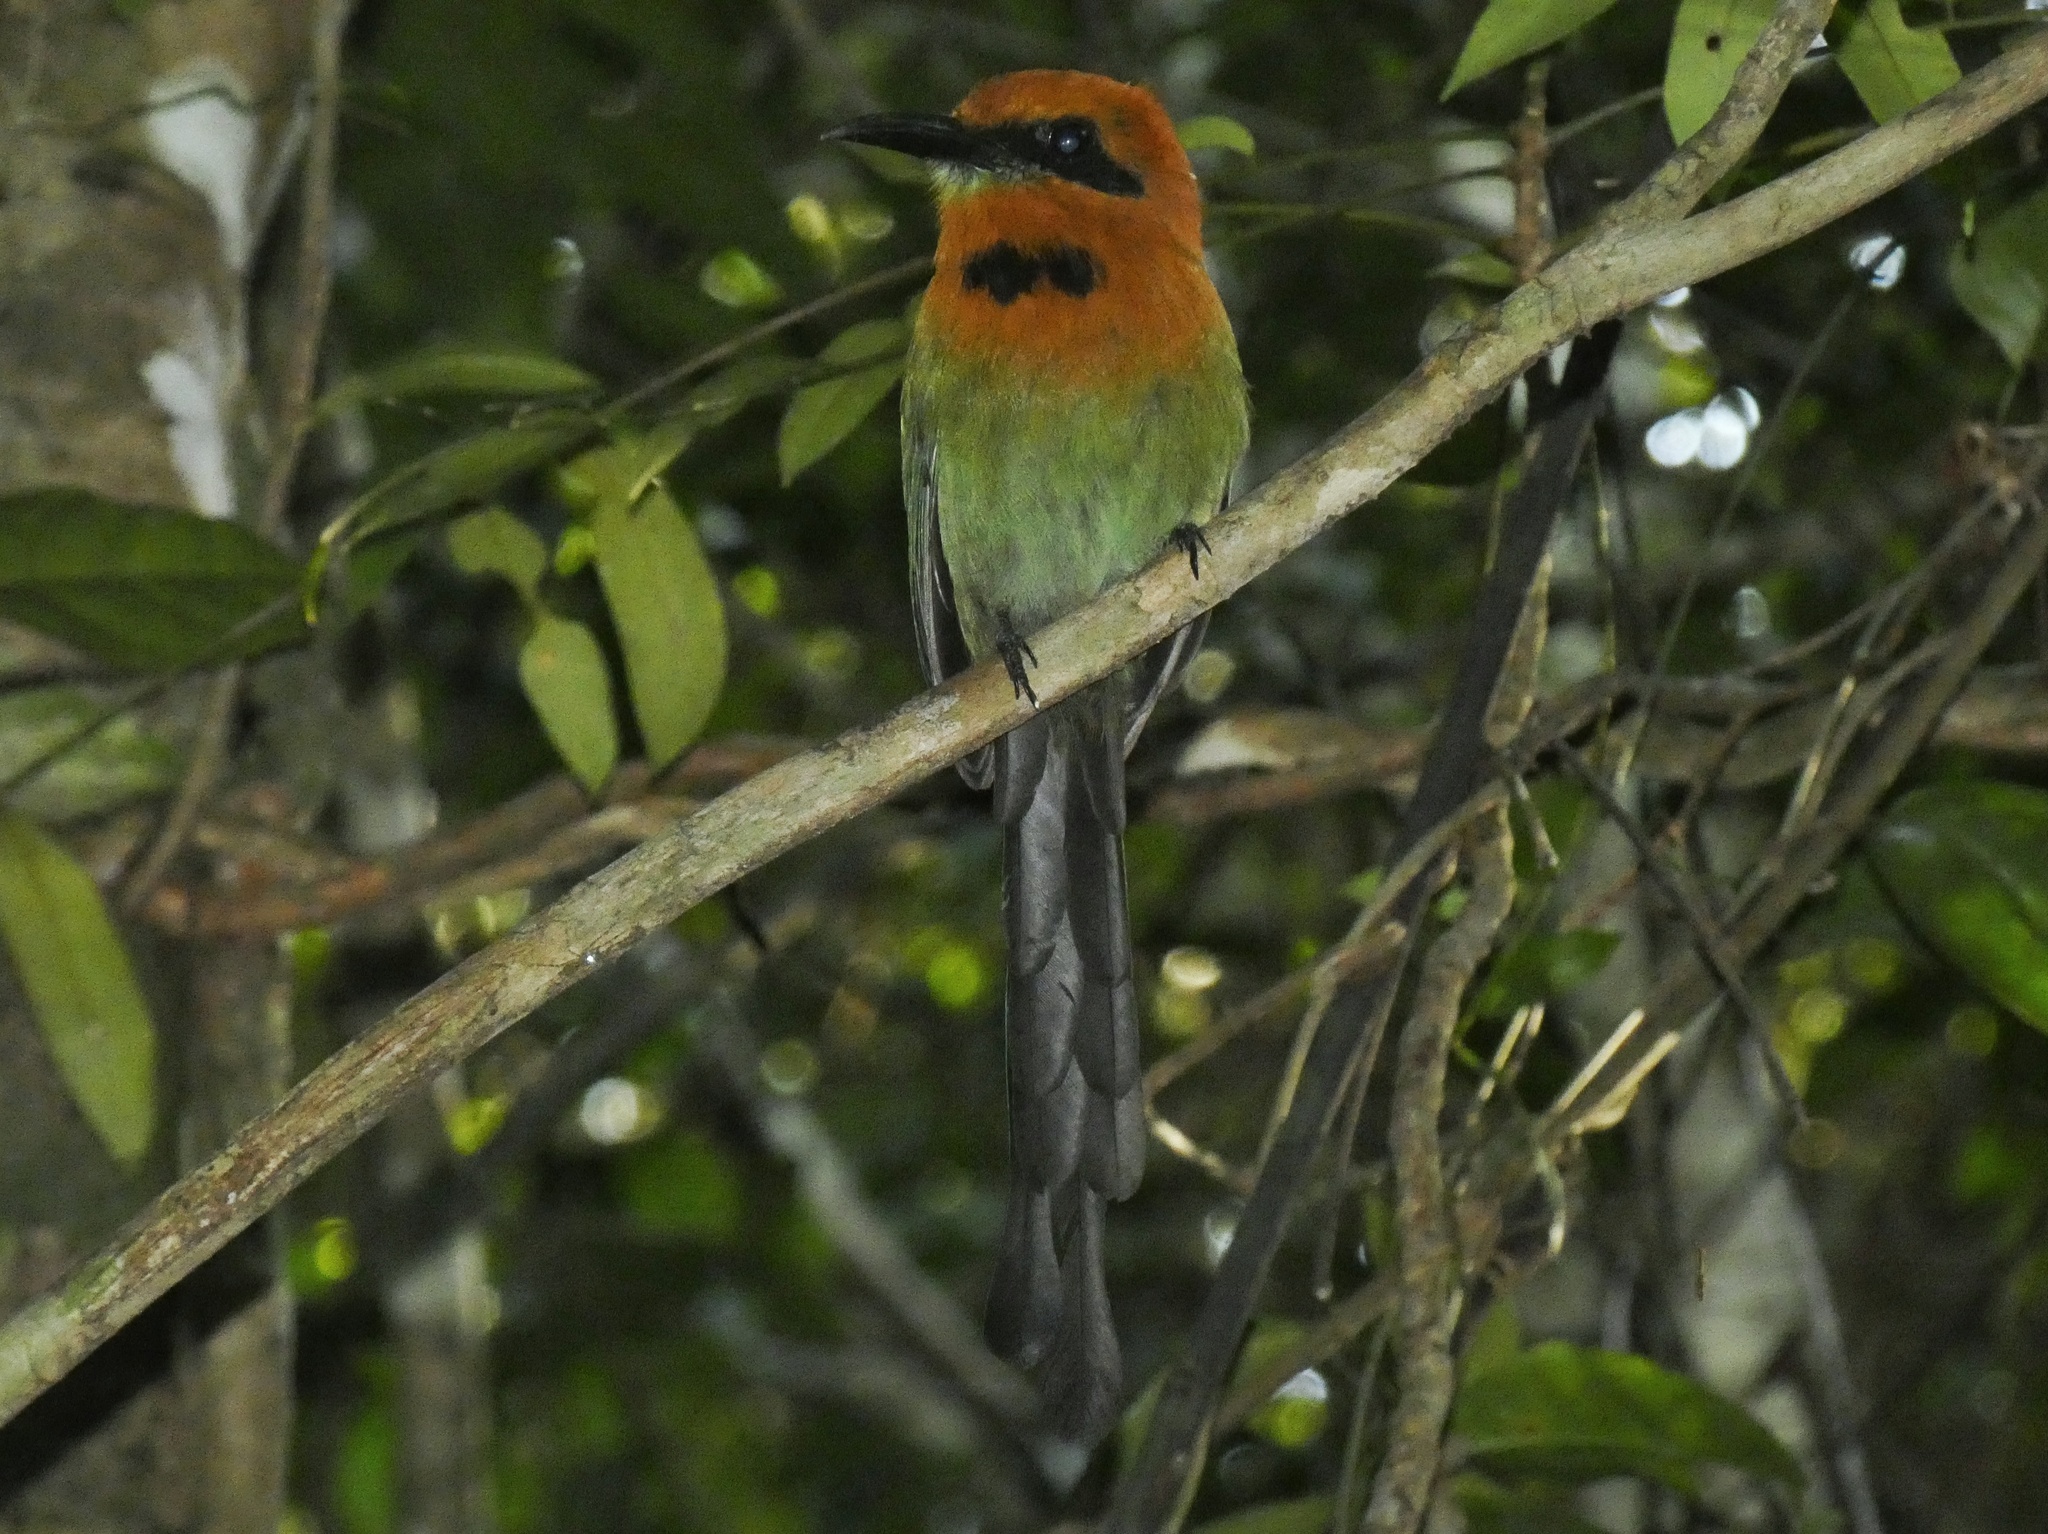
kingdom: Animalia
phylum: Chordata
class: Aves
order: Coraciiformes
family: Momotidae
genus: Electron
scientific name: Electron platyrhynchum
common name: Broad-billed motmot
